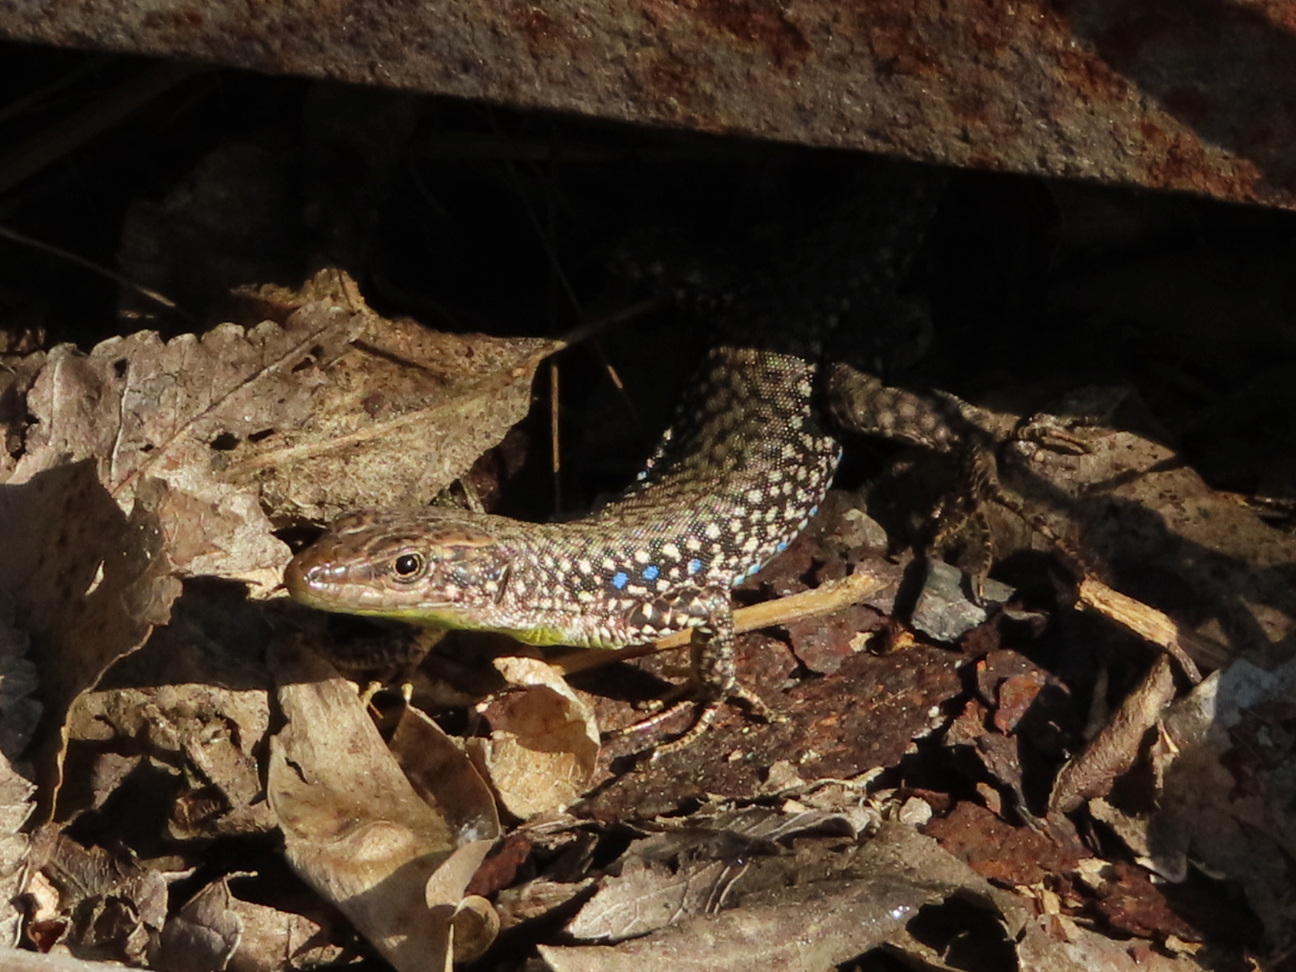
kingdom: Animalia
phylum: Chordata
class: Squamata
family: Lacertidae
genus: Darevskia
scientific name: Darevskia
